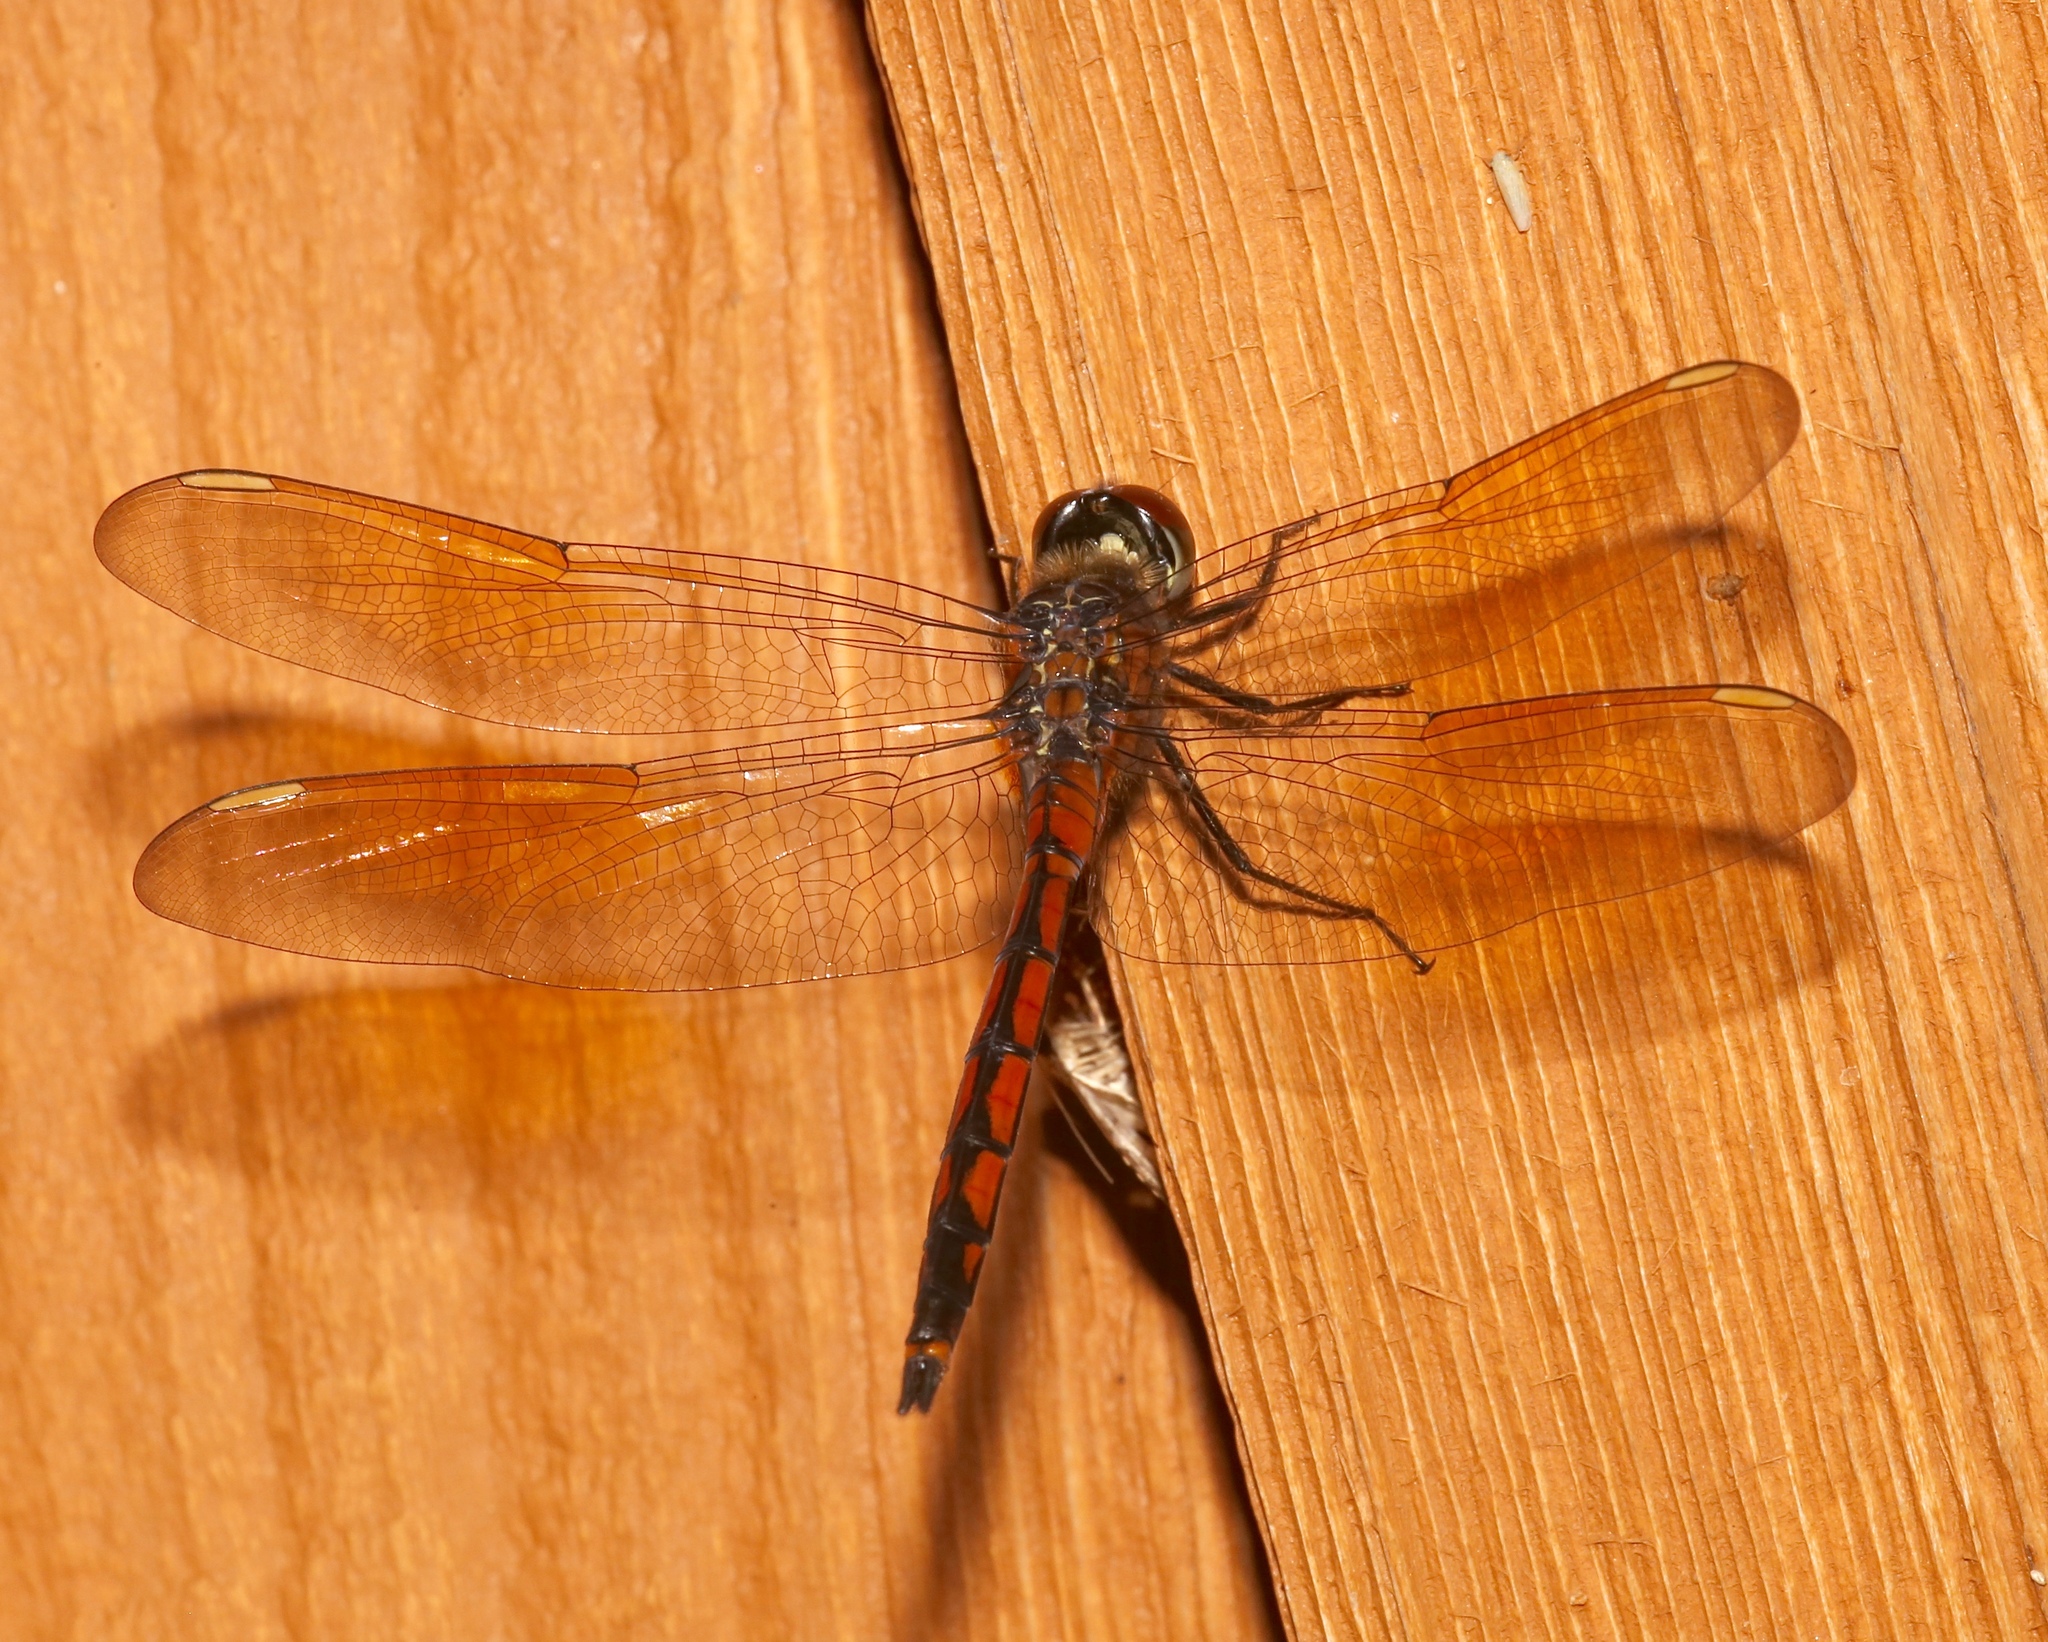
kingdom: Animalia
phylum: Arthropoda
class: Insecta
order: Odonata
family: Libellulidae
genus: Brachymesia
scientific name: Brachymesia gravida
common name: Four-spotted pennant
